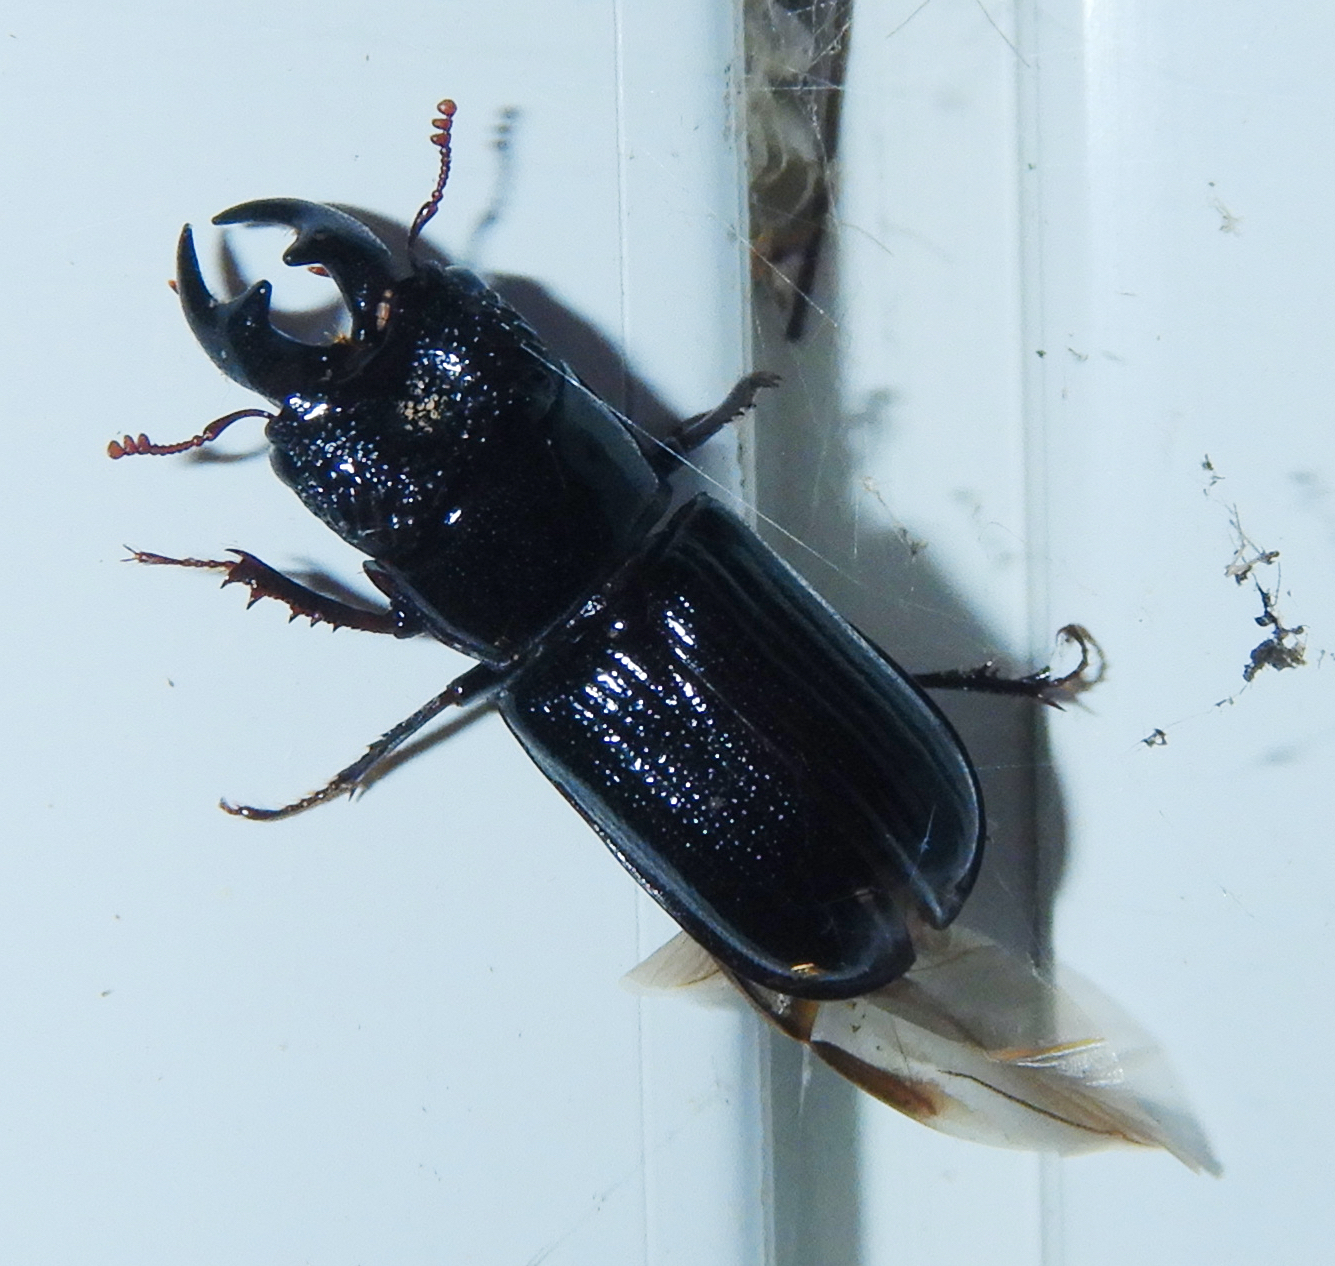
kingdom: Animalia
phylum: Arthropoda
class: Insecta
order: Coleoptera
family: Lucanidae
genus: Ceruchus
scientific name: Ceruchus piceus
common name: Red-rot decay stag beetle
